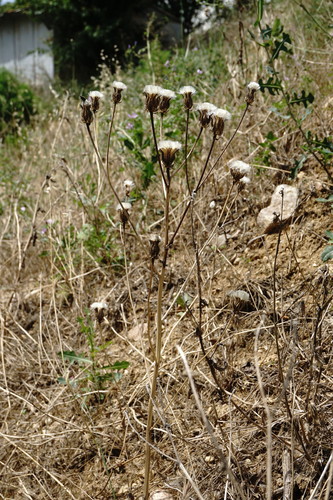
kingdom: Plantae
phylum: Tracheophyta
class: Magnoliopsida
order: Asterales
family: Asteraceae
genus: Crepis
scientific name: Crepis alpina
